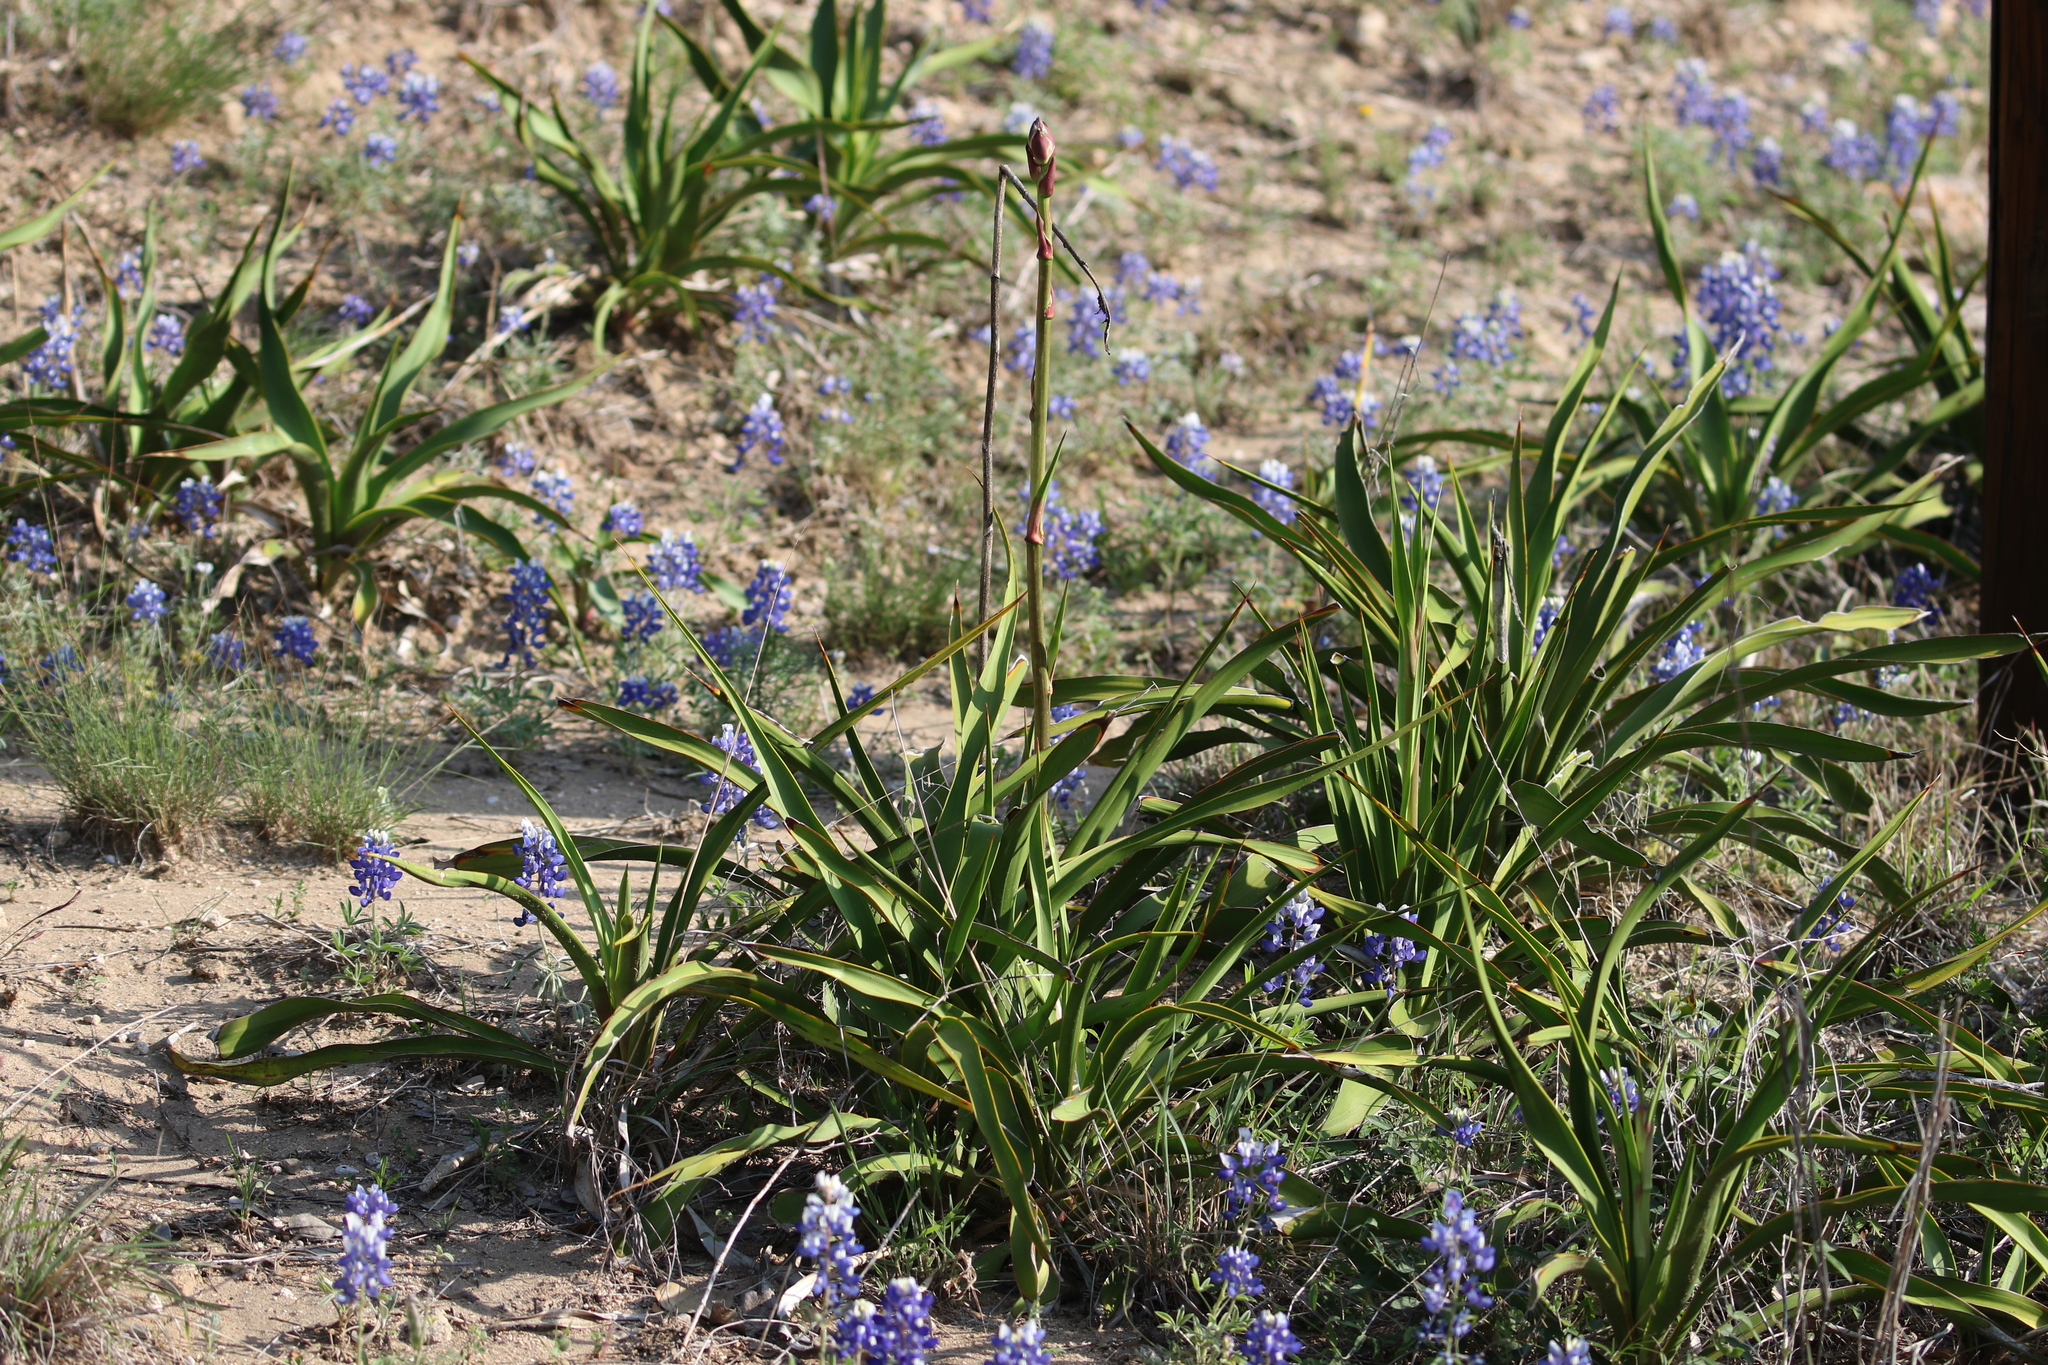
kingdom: Plantae
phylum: Tracheophyta
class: Liliopsida
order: Asparagales
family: Asparagaceae
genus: Yucca
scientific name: Yucca rupicola
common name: Twisted-leaf spanish-dagger
